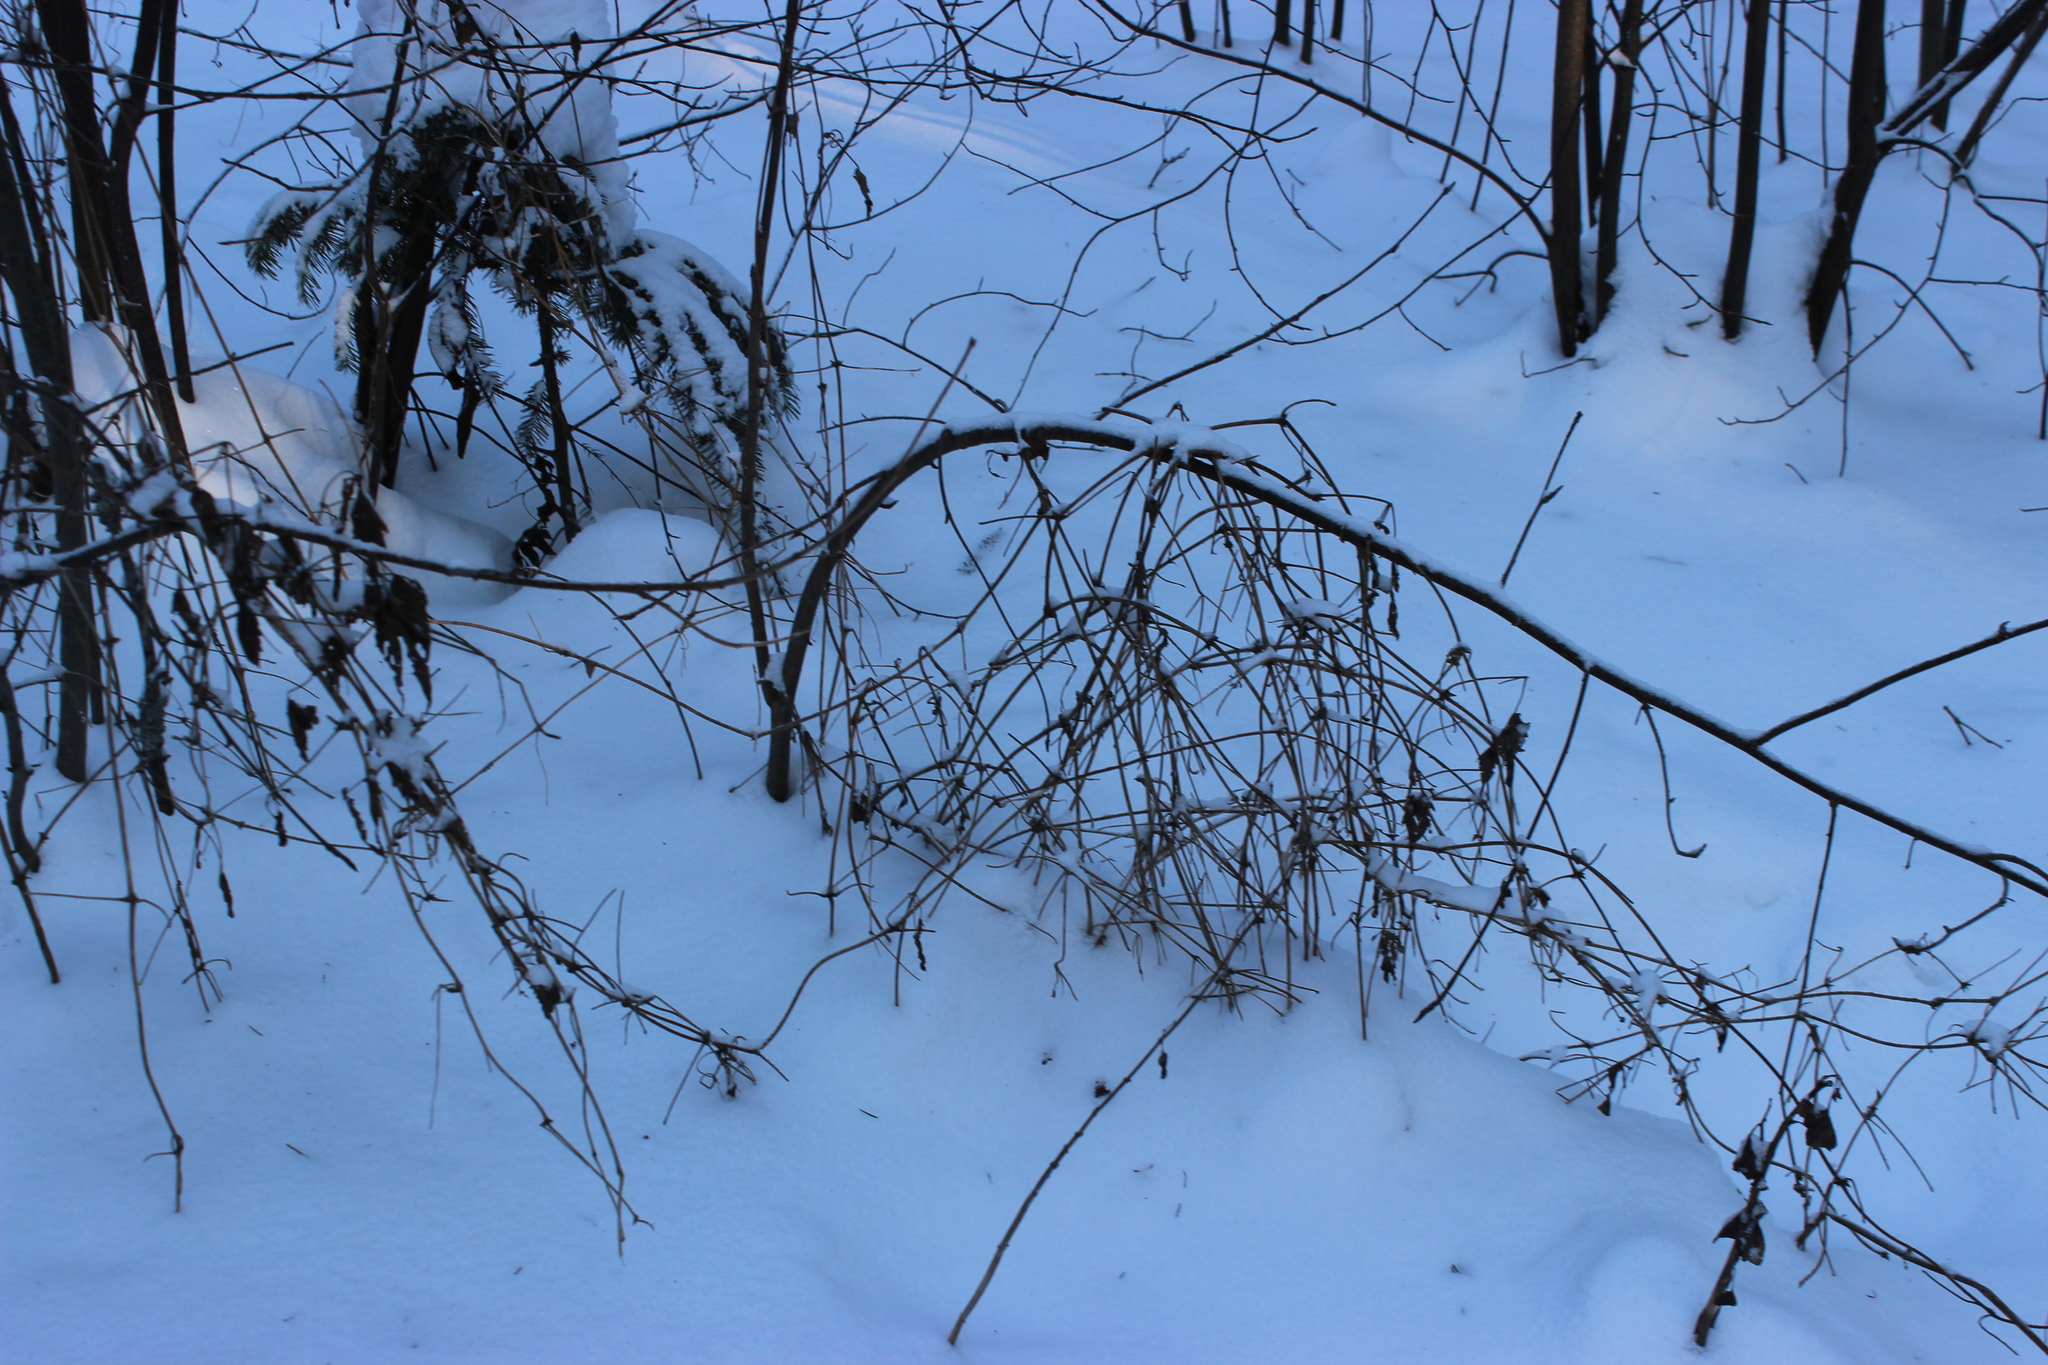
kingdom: Plantae
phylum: Tracheophyta
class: Magnoliopsida
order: Ranunculales
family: Ranunculaceae
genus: Clematis
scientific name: Clematis sibirica
